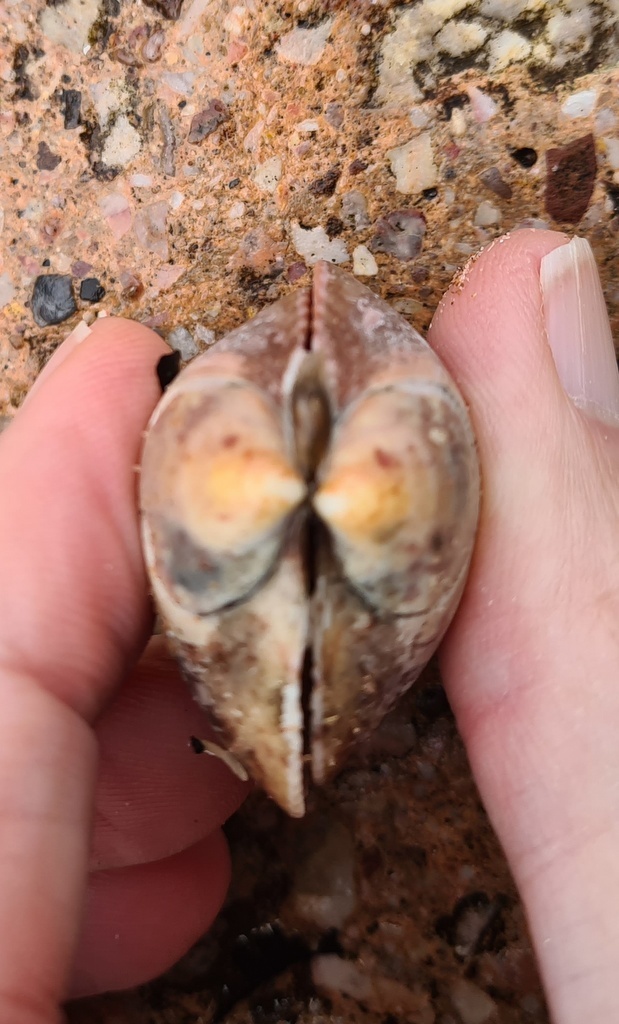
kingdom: Animalia
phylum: Mollusca
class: Bivalvia
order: Cardiida
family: Cardiidae
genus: Laevicardium
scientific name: Laevicardium crassum
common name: Norway cockle
